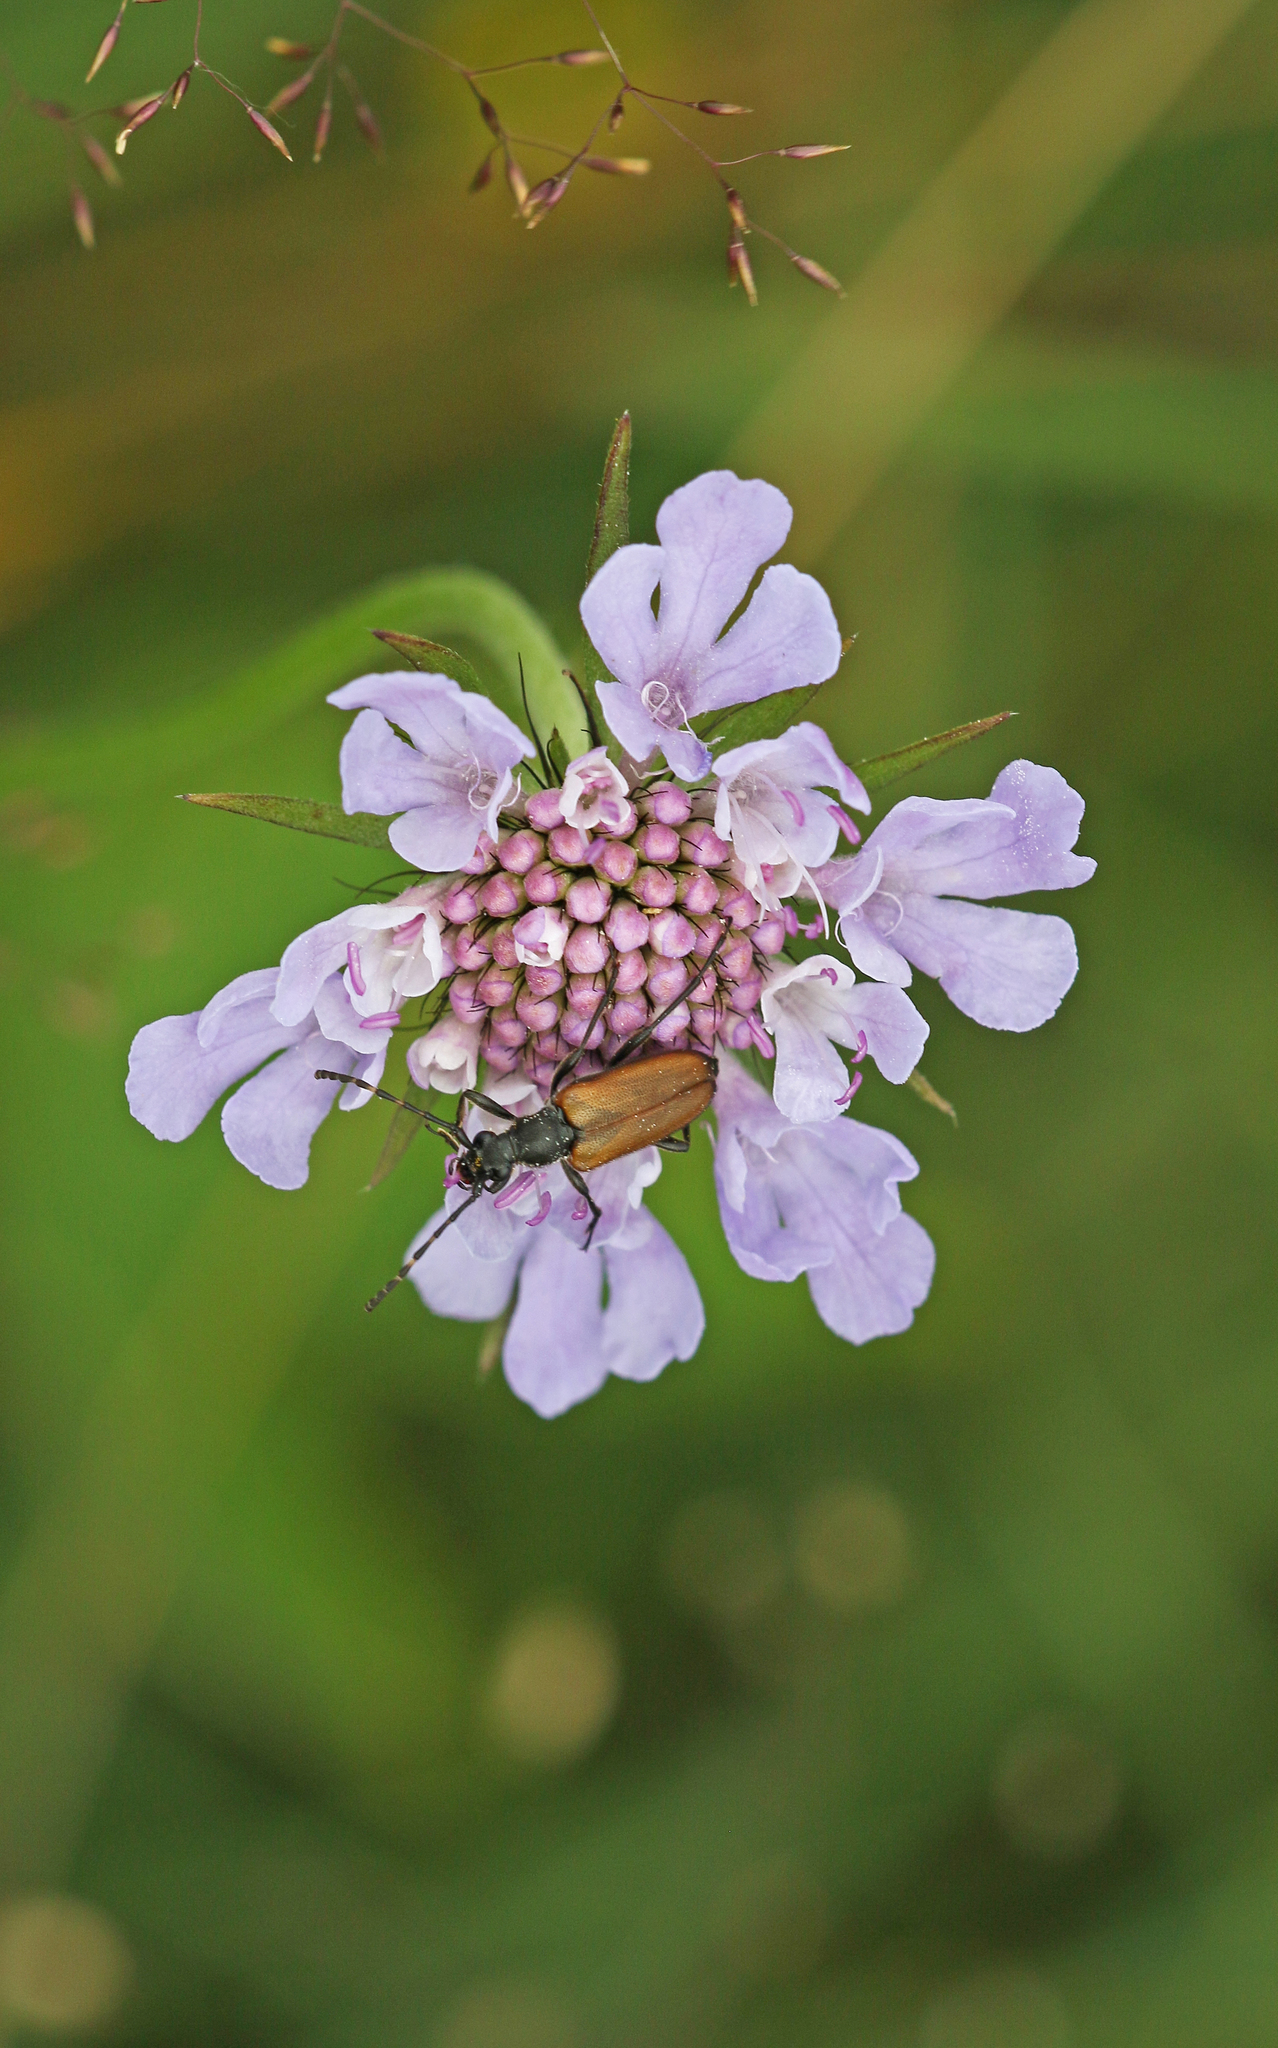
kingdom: Animalia
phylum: Arthropoda
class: Insecta
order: Coleoptera
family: Cerambycidae
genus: Paracorymbia
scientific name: Paracorymbia maculicornis
